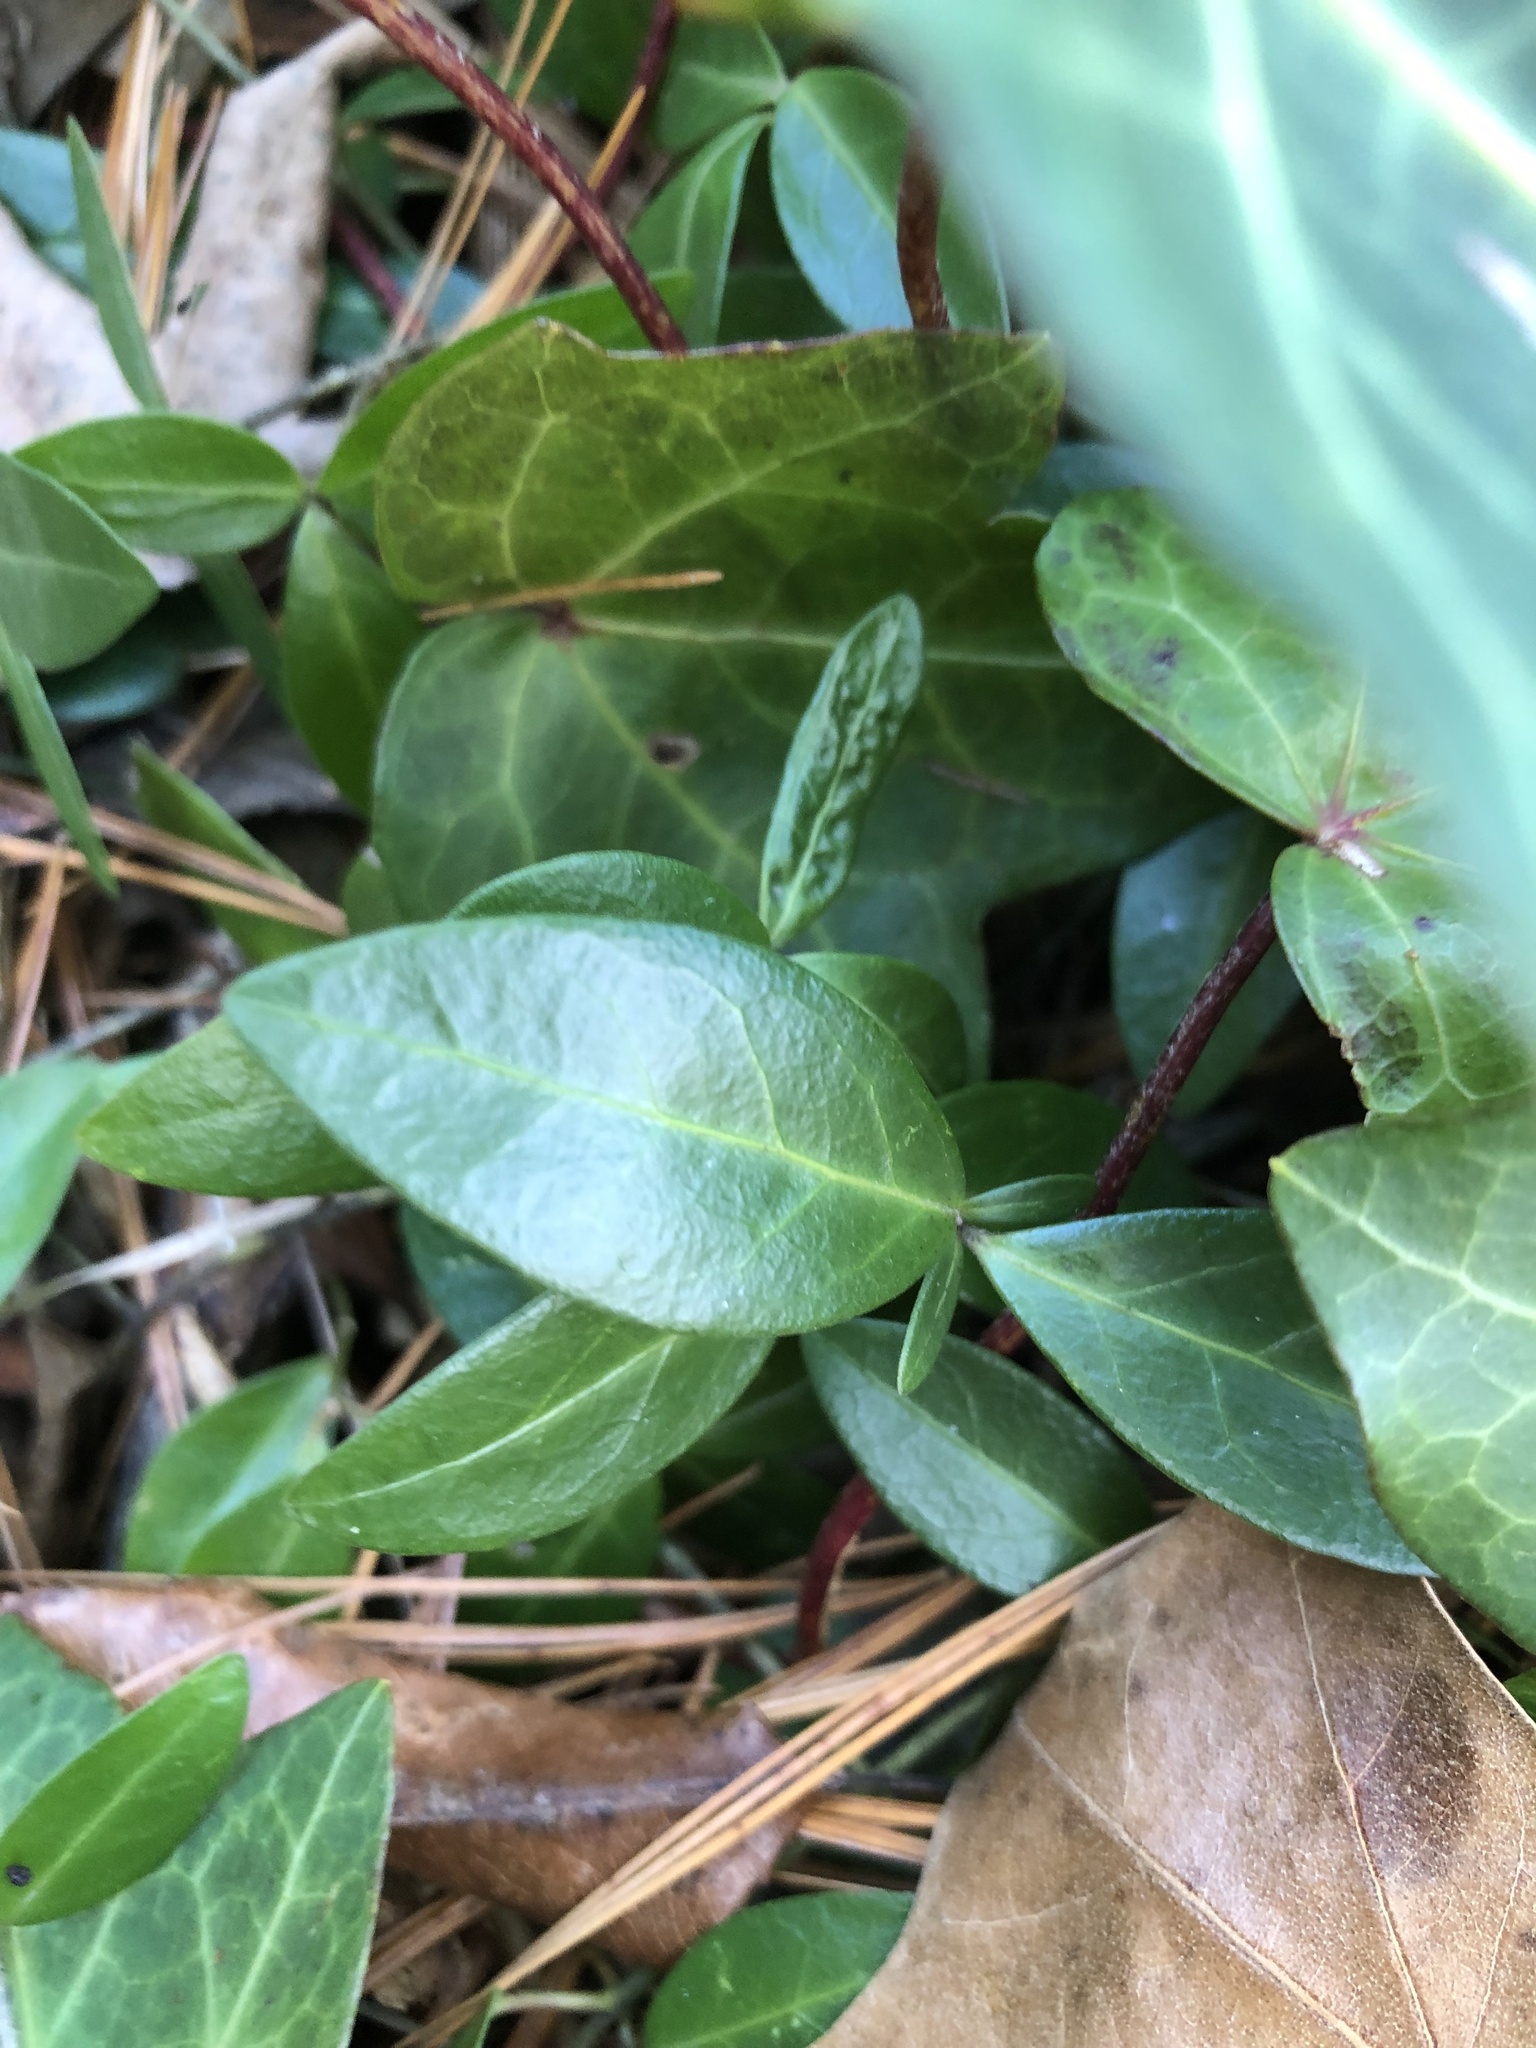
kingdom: Plantae
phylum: Tracheophyta
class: Magnoliopsida
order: Gentianales
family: Apocynaceae
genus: Vinca
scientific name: Vinca minor
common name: Lesser periwinkle
